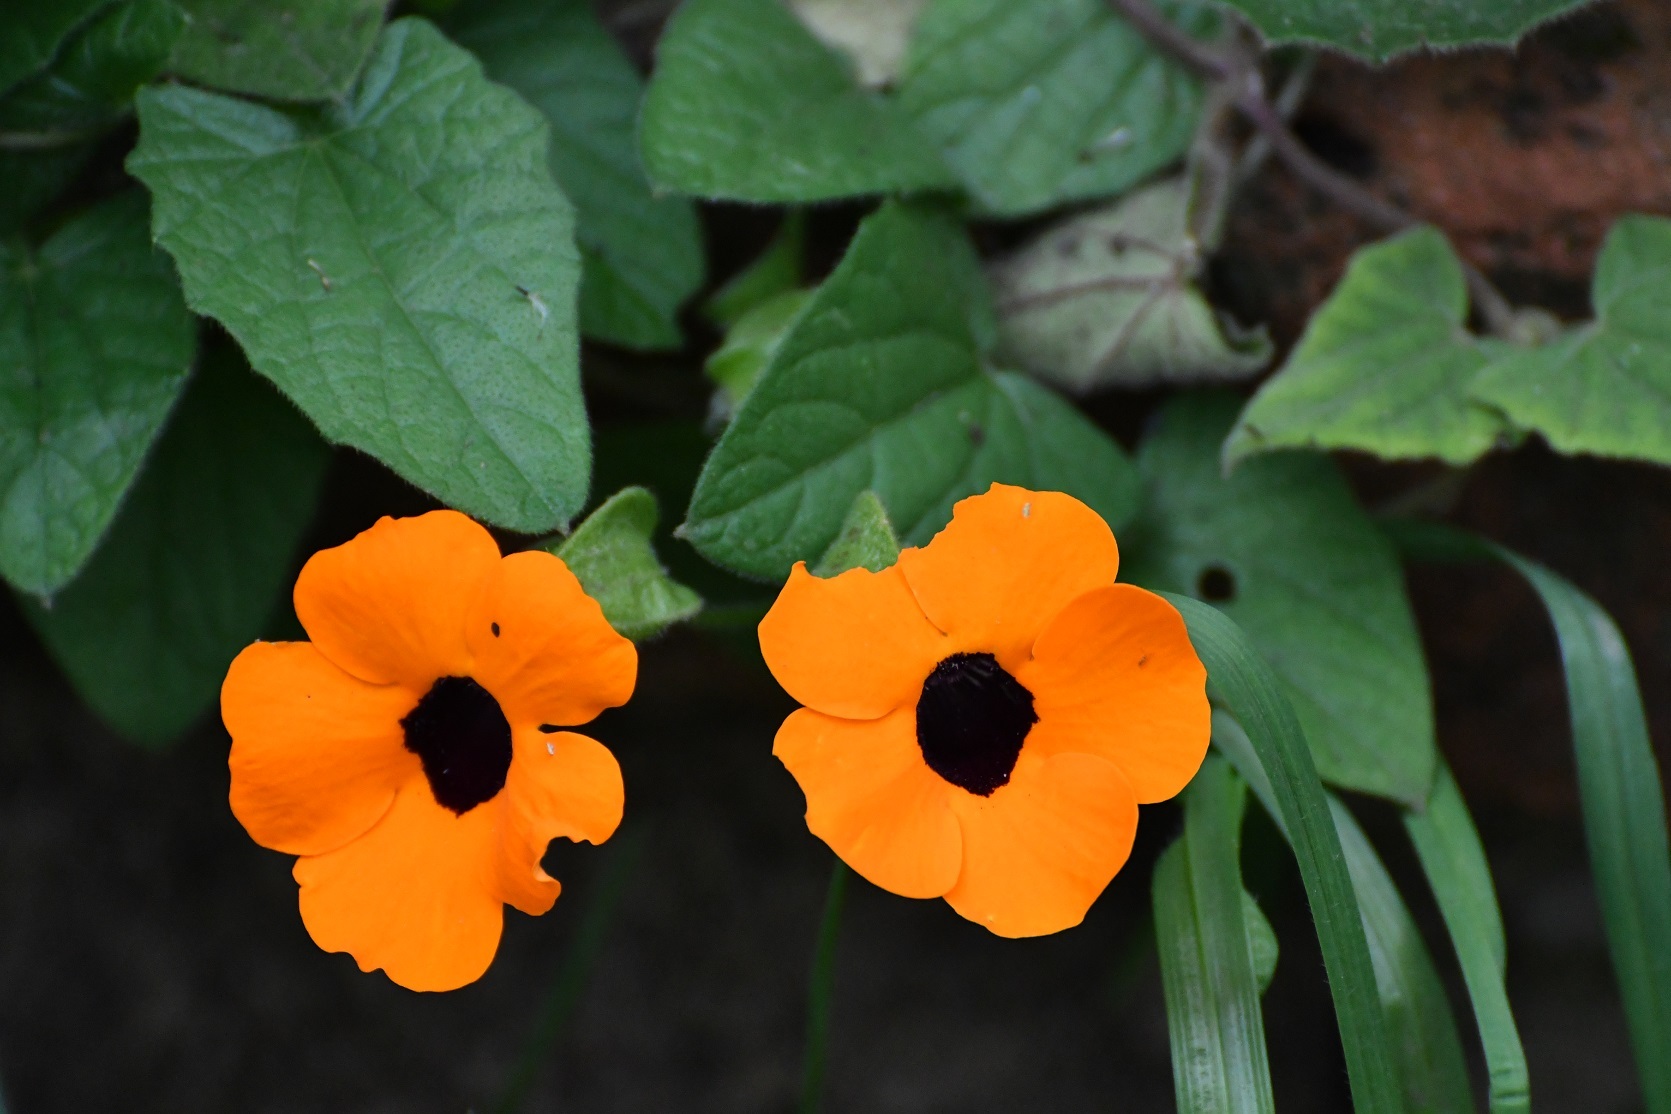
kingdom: Plantae
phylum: Tracheophyta
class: Magnoliopsida
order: Lamiales
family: Acanthaceae
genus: Thunbergia
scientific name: Thunbergia alata
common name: Blackeyed susan vine
